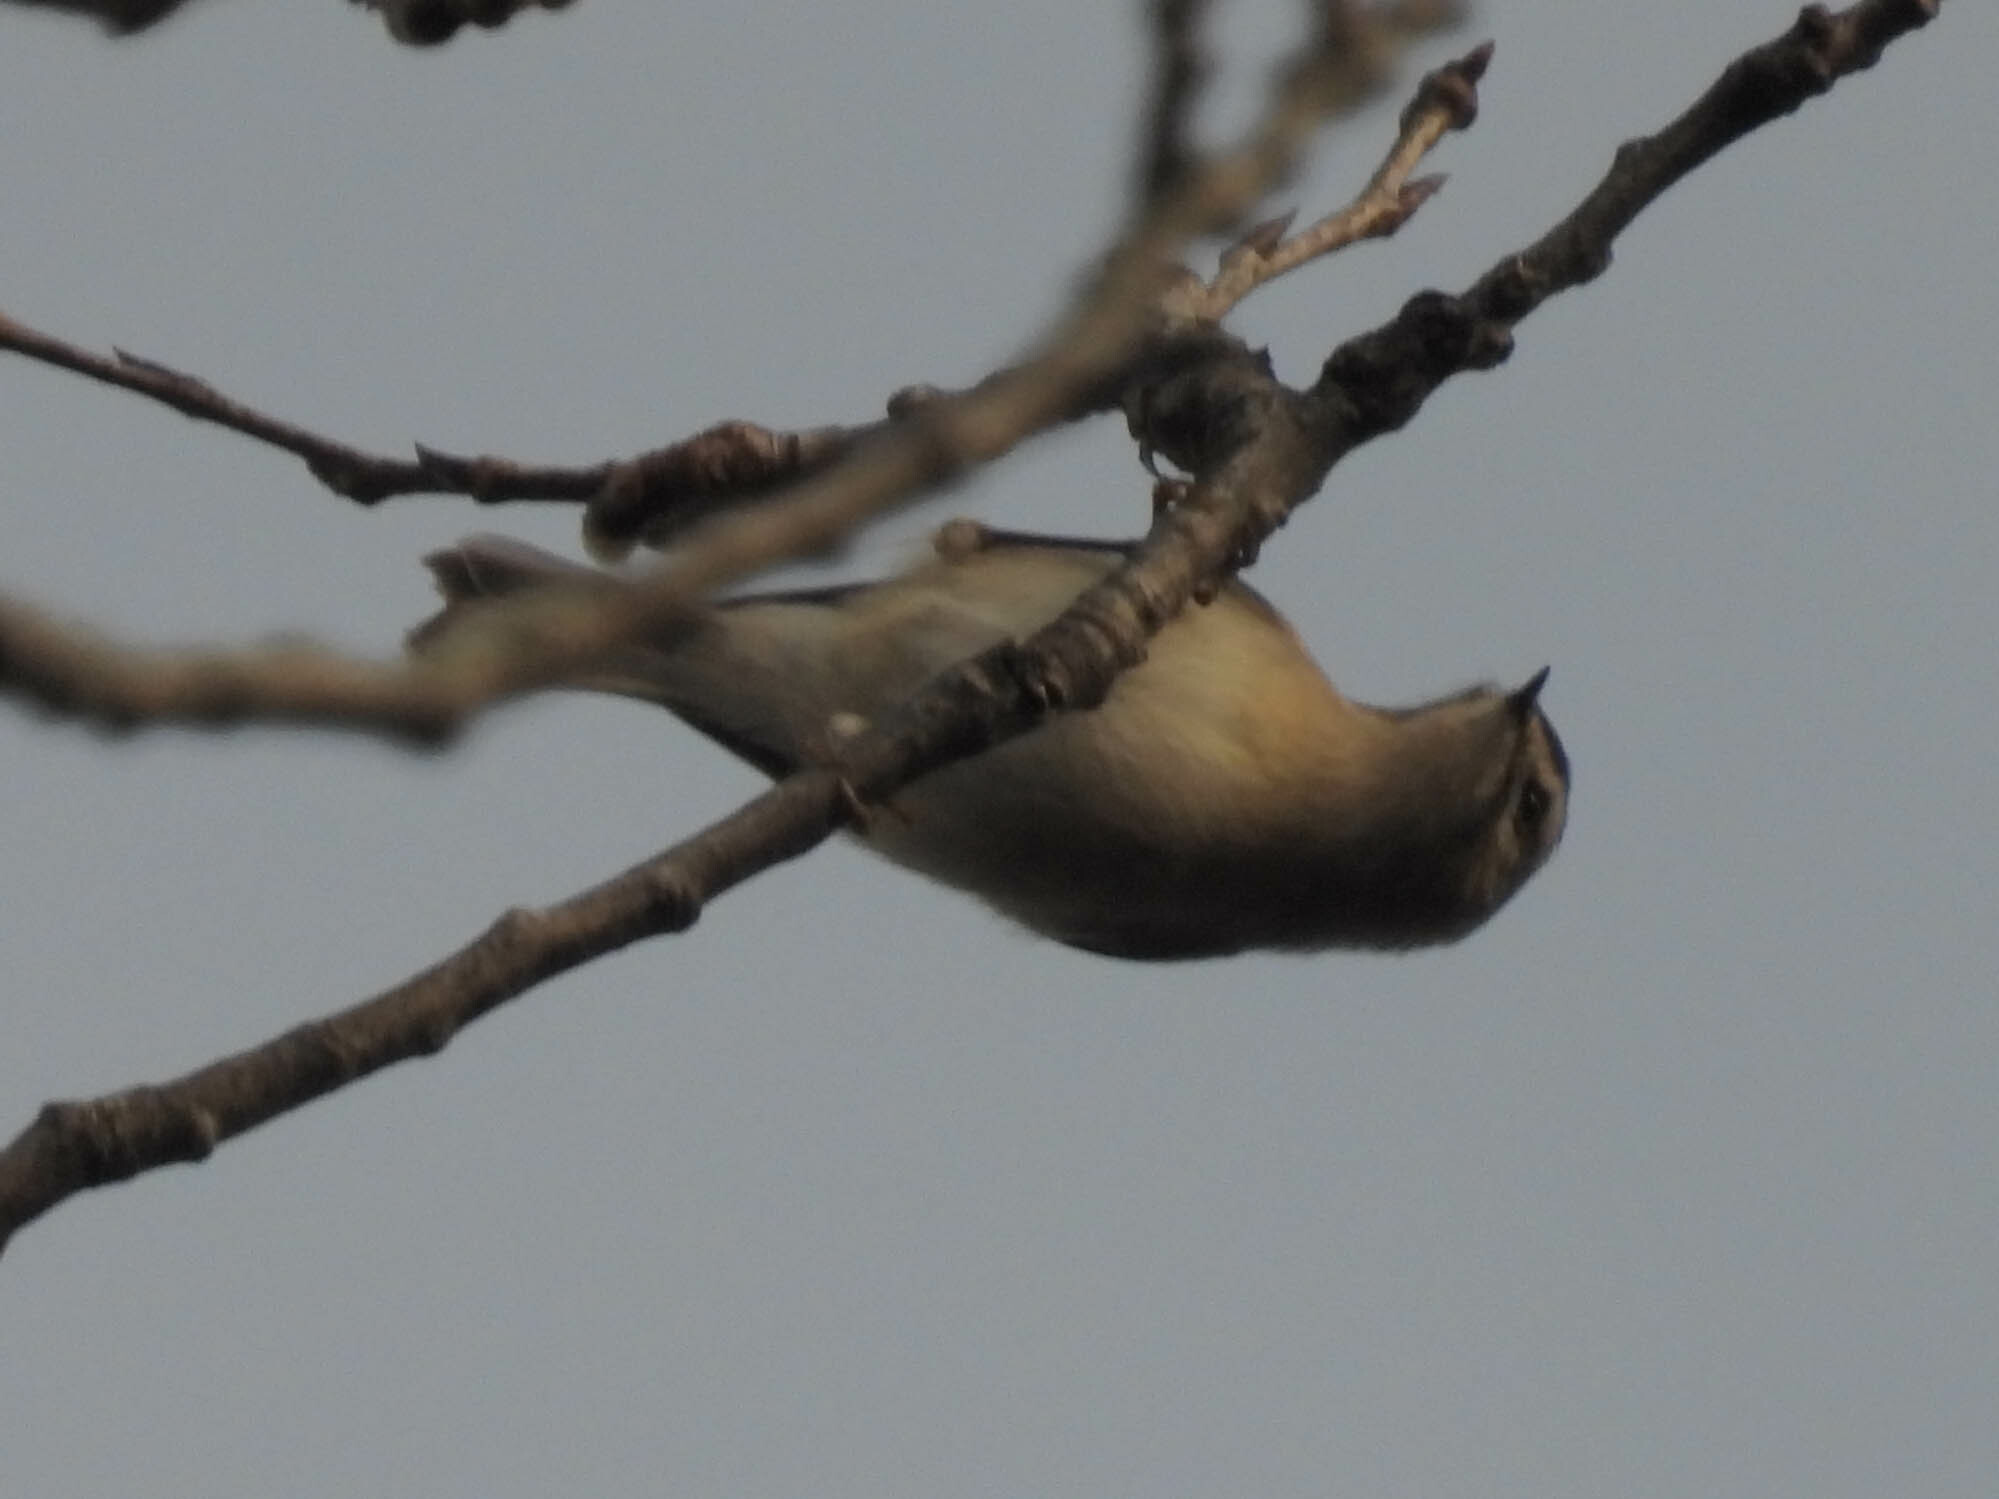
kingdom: Animalia
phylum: Chordata
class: Aves
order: Passeriformes
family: Regulidae
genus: Regulus
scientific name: Regulus satrapa
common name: Golden-crowned kinglet
